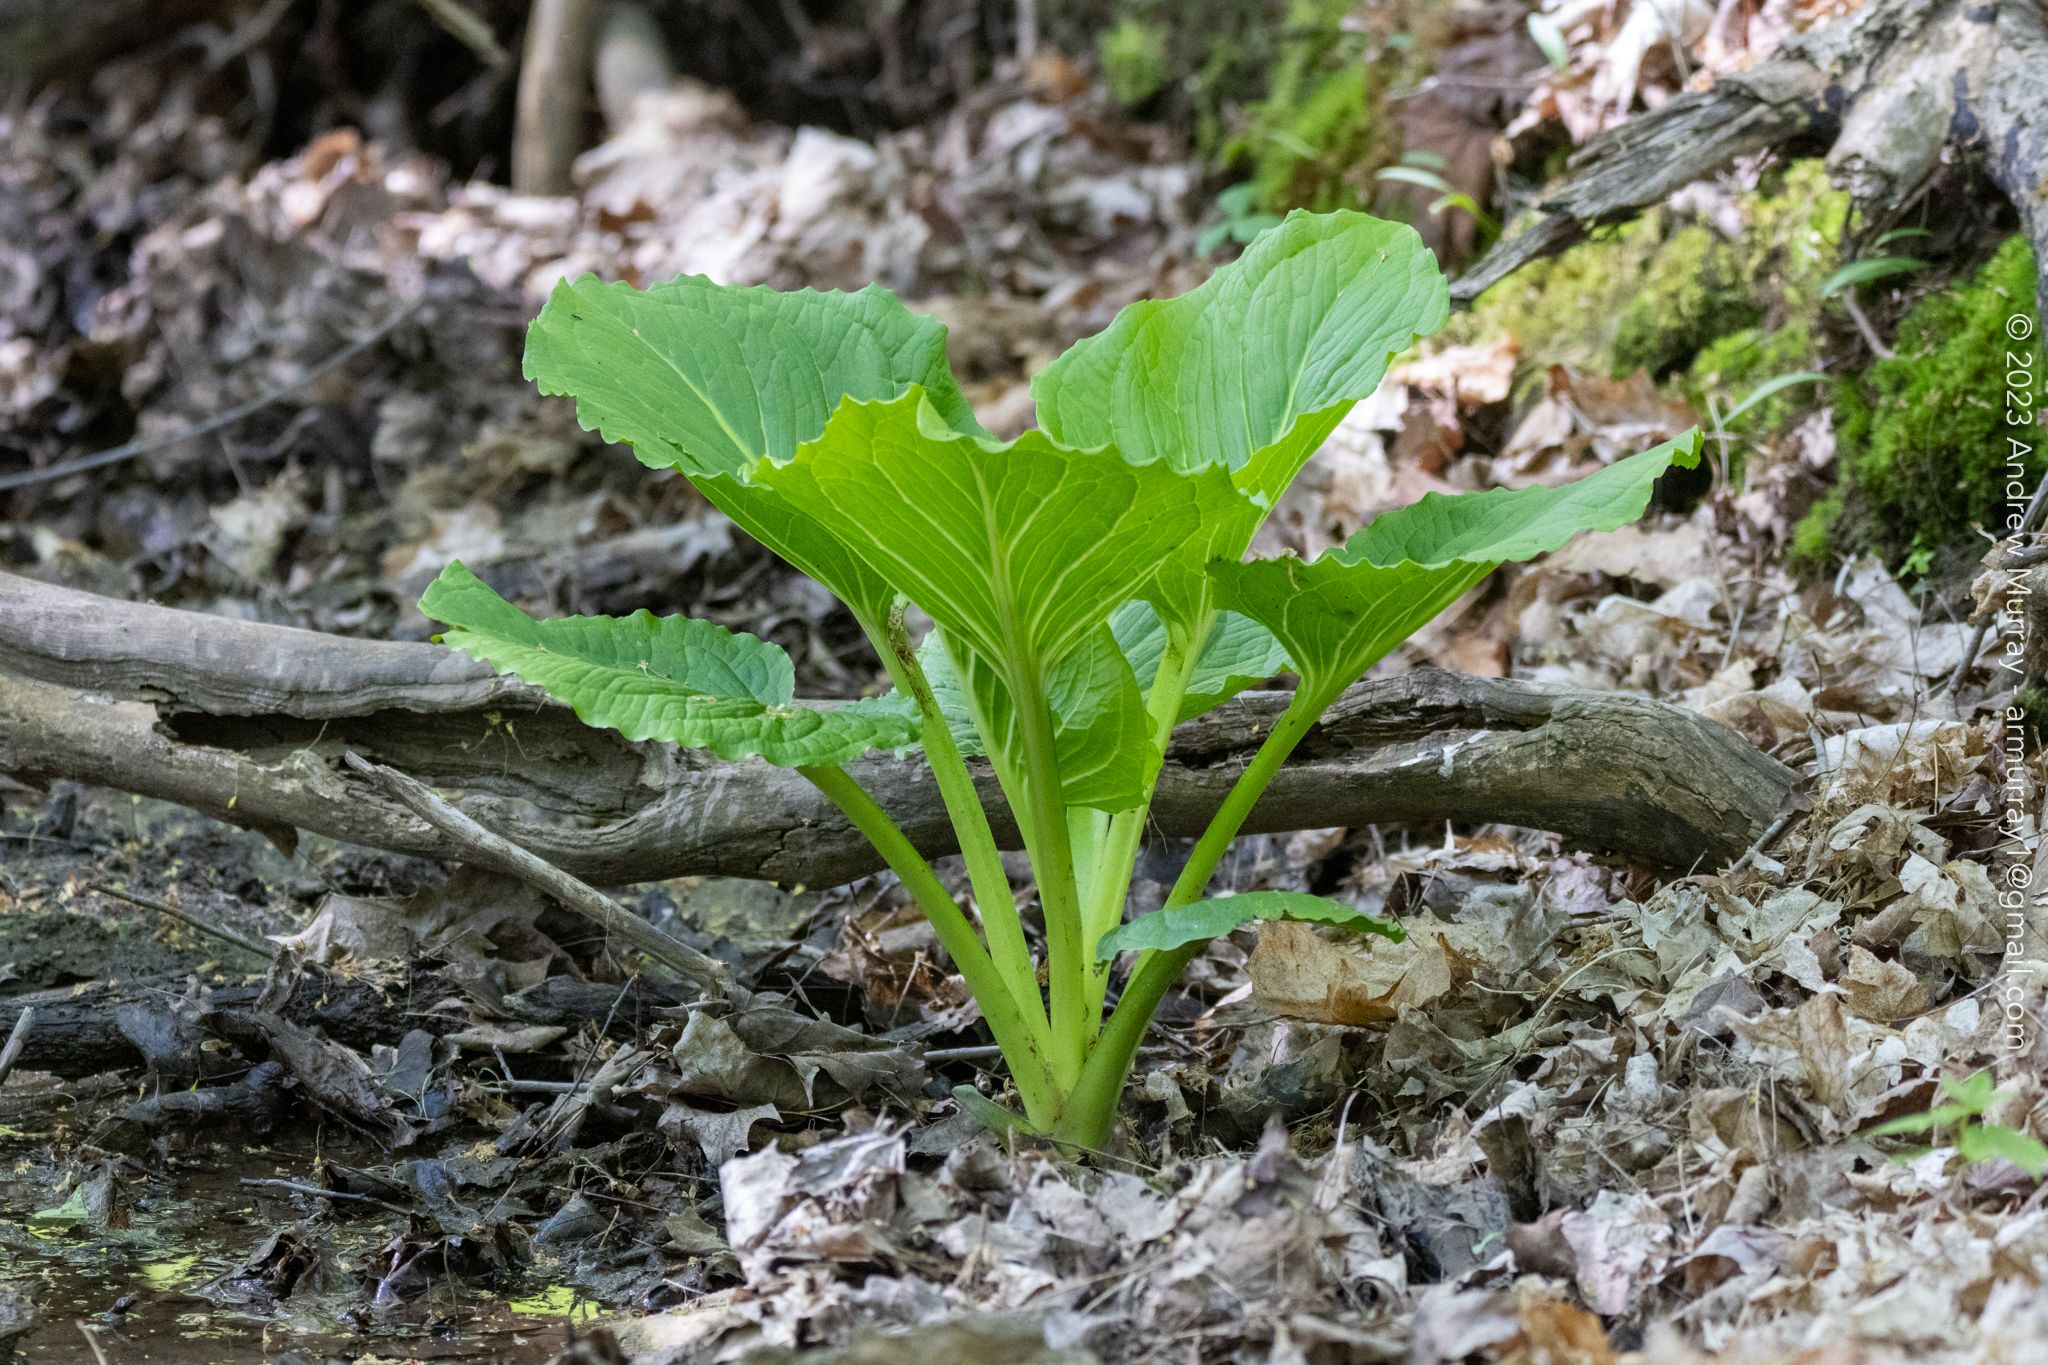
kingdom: Plantae
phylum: Tracheophyta
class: Liliopsida
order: Alismatales
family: Araceae
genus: Symplocarpus
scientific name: Symplocarpus foetidus
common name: Eastern skunk cabbage
